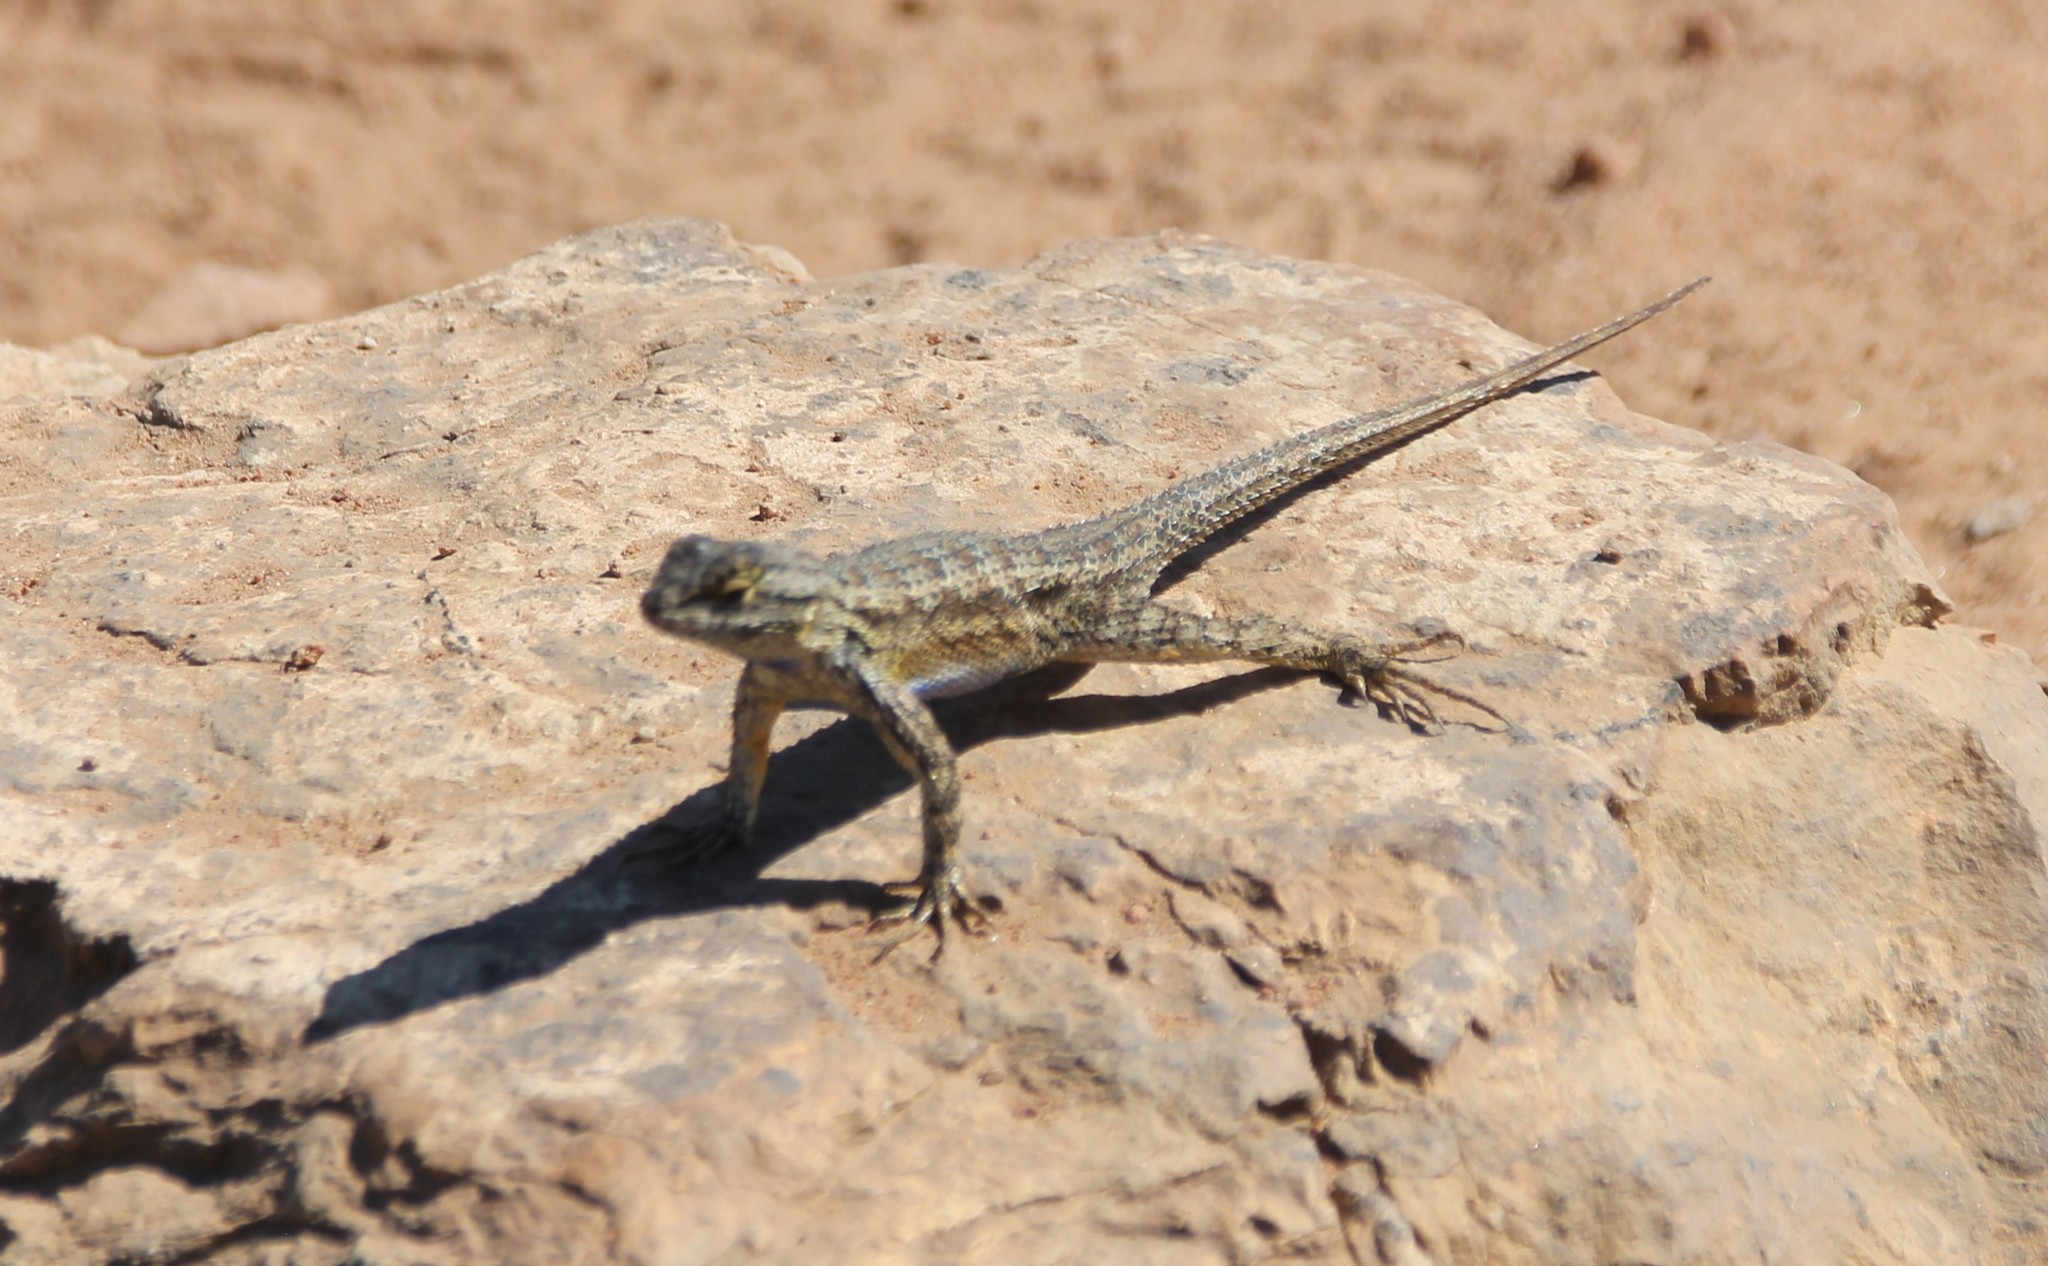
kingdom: Animalia
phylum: Chordata
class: Squamata
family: Phrynosomatidae
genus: Sceloporus
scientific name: Sceloporus occidentalis
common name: Western fence lizard
